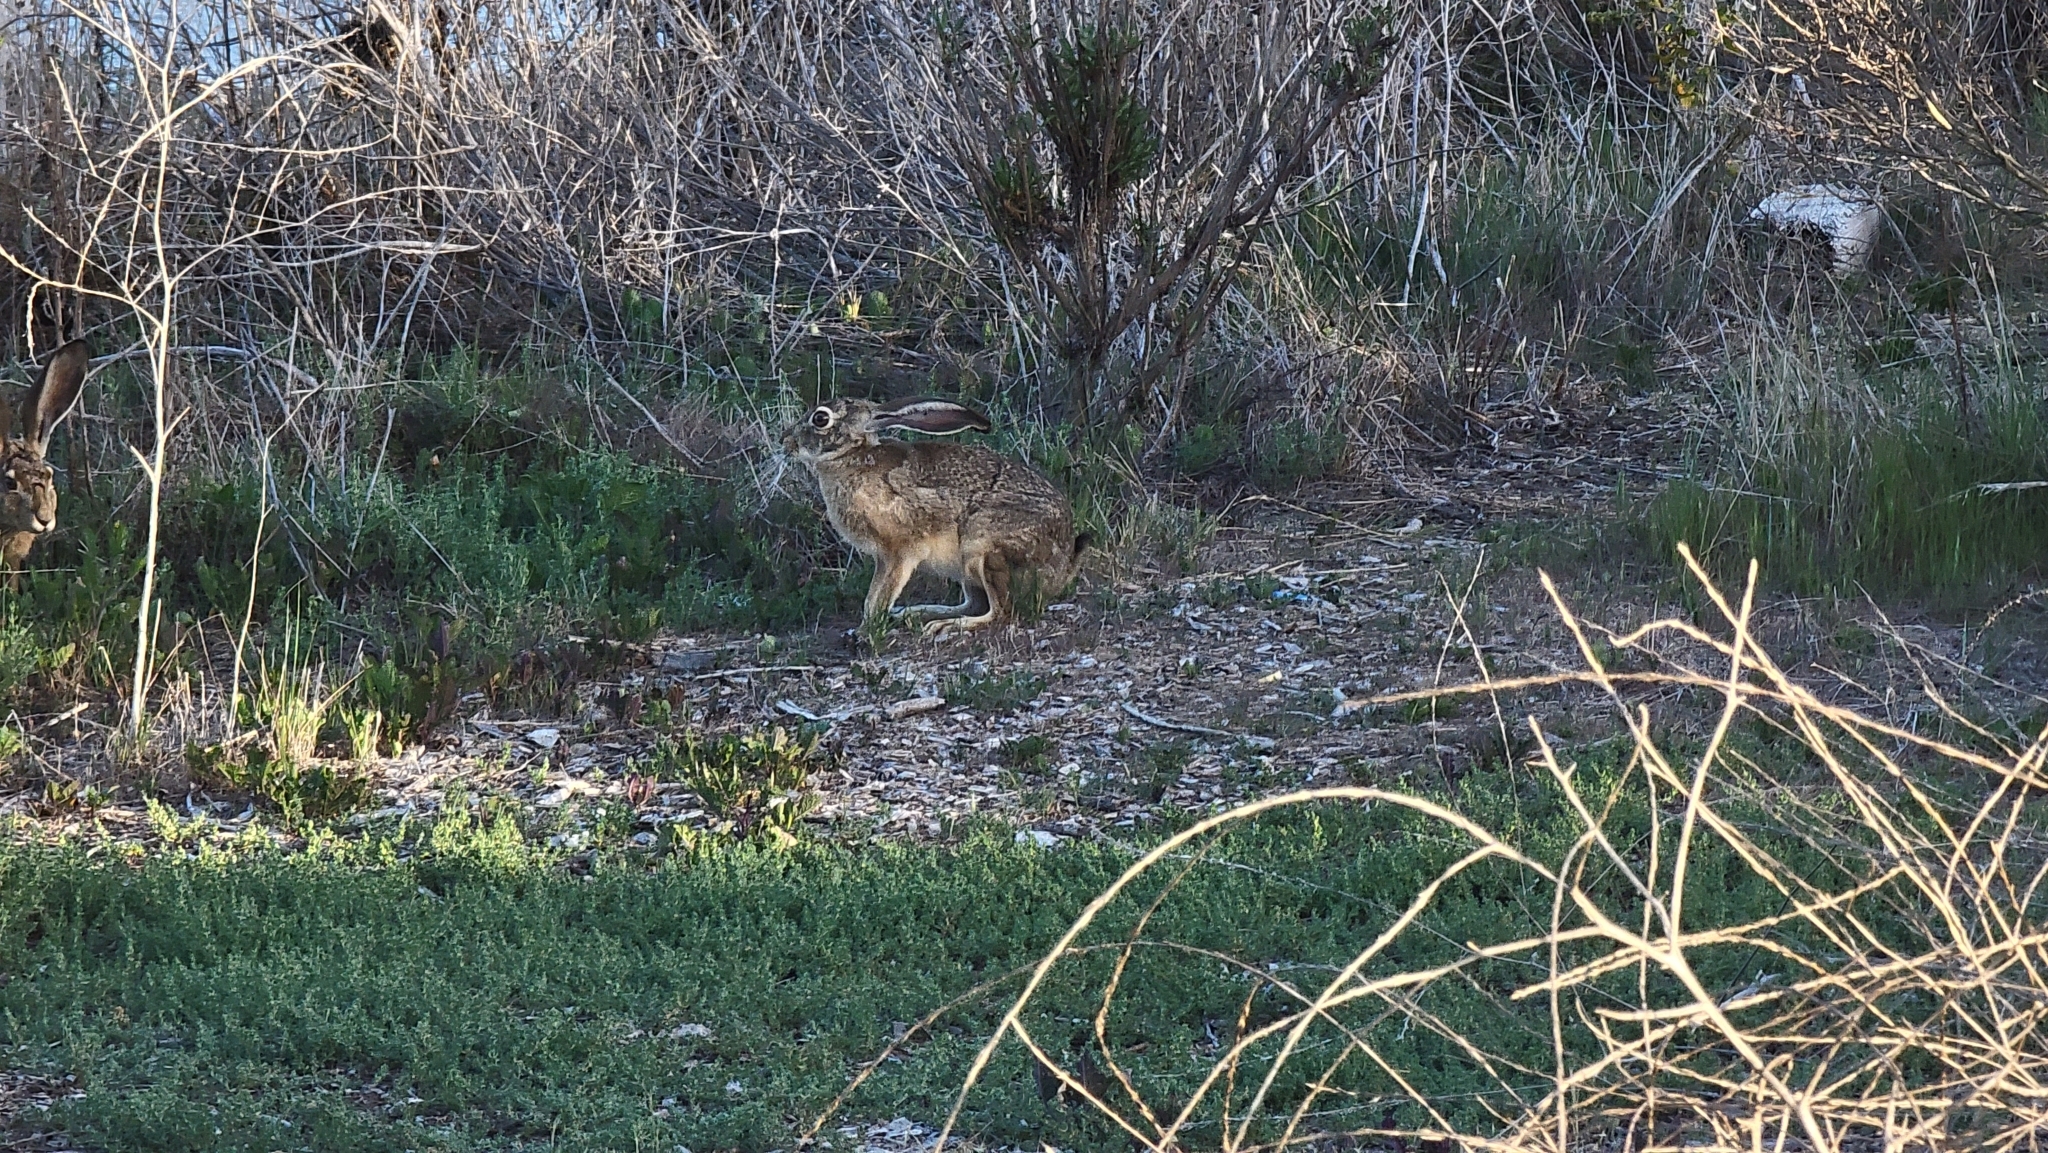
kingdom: Animalia
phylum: Chordata
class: Mammalia
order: Lagomorpha
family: Leporidae
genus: Lepus
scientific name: Lepus californicus
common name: Black-tailed jackrabbit
